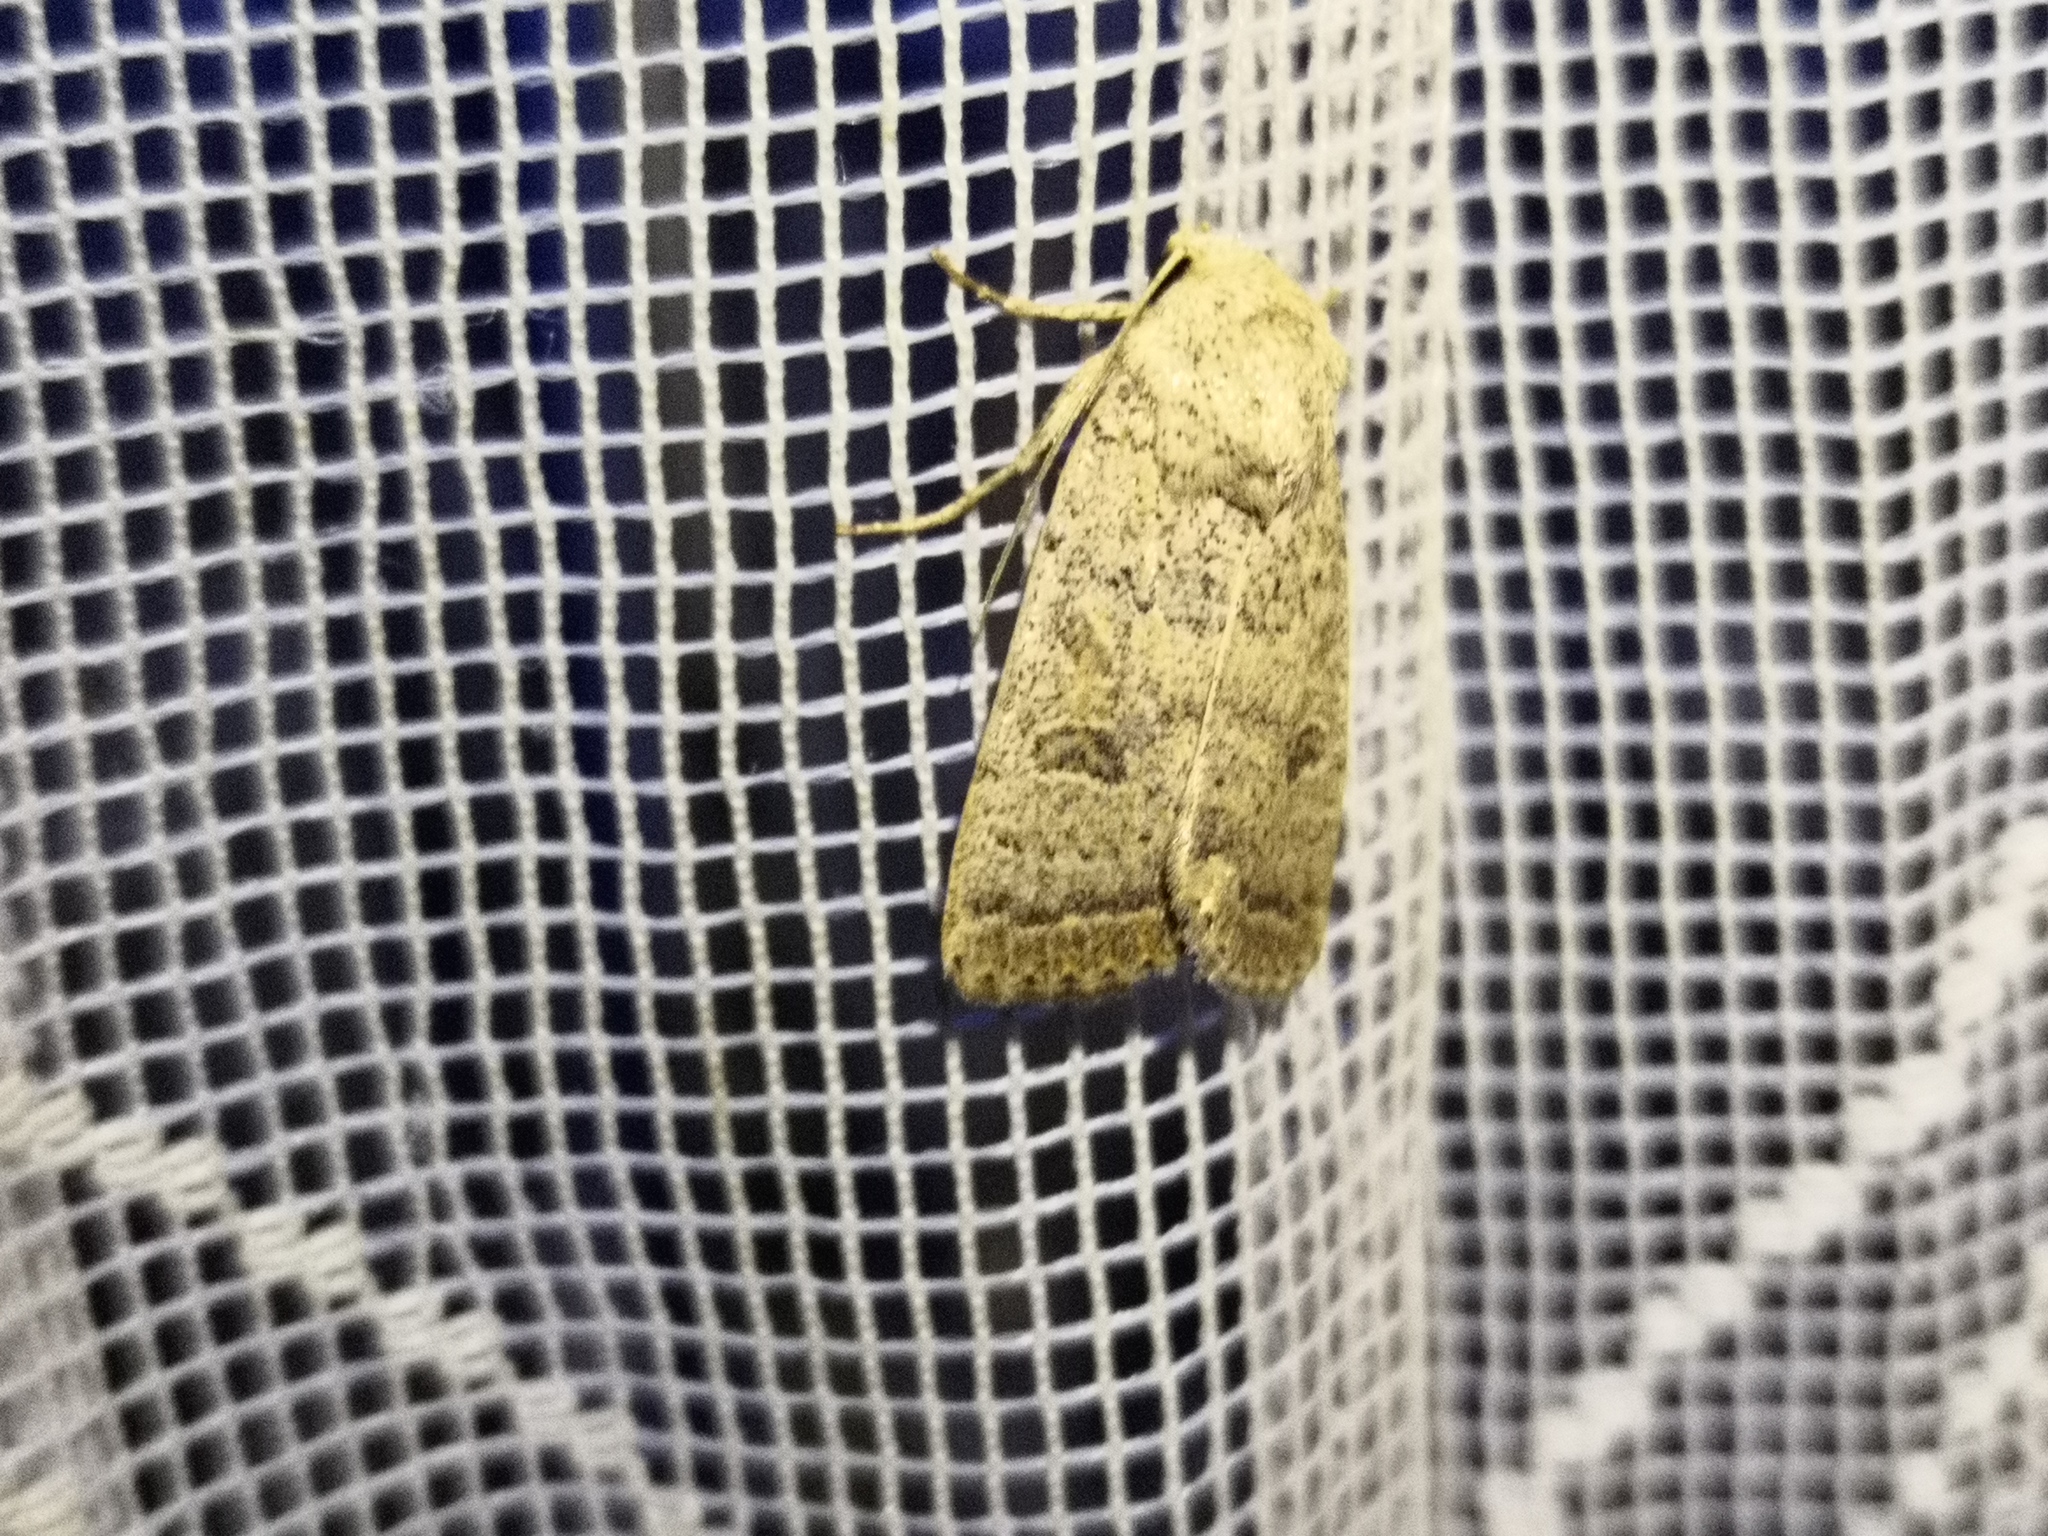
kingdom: Animalia
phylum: Arthropoda
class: Insecta
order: Lepidoptera
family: Noctuidae
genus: Hoplodrina
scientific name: Hoplodrina superstes
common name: Powdered rustic
